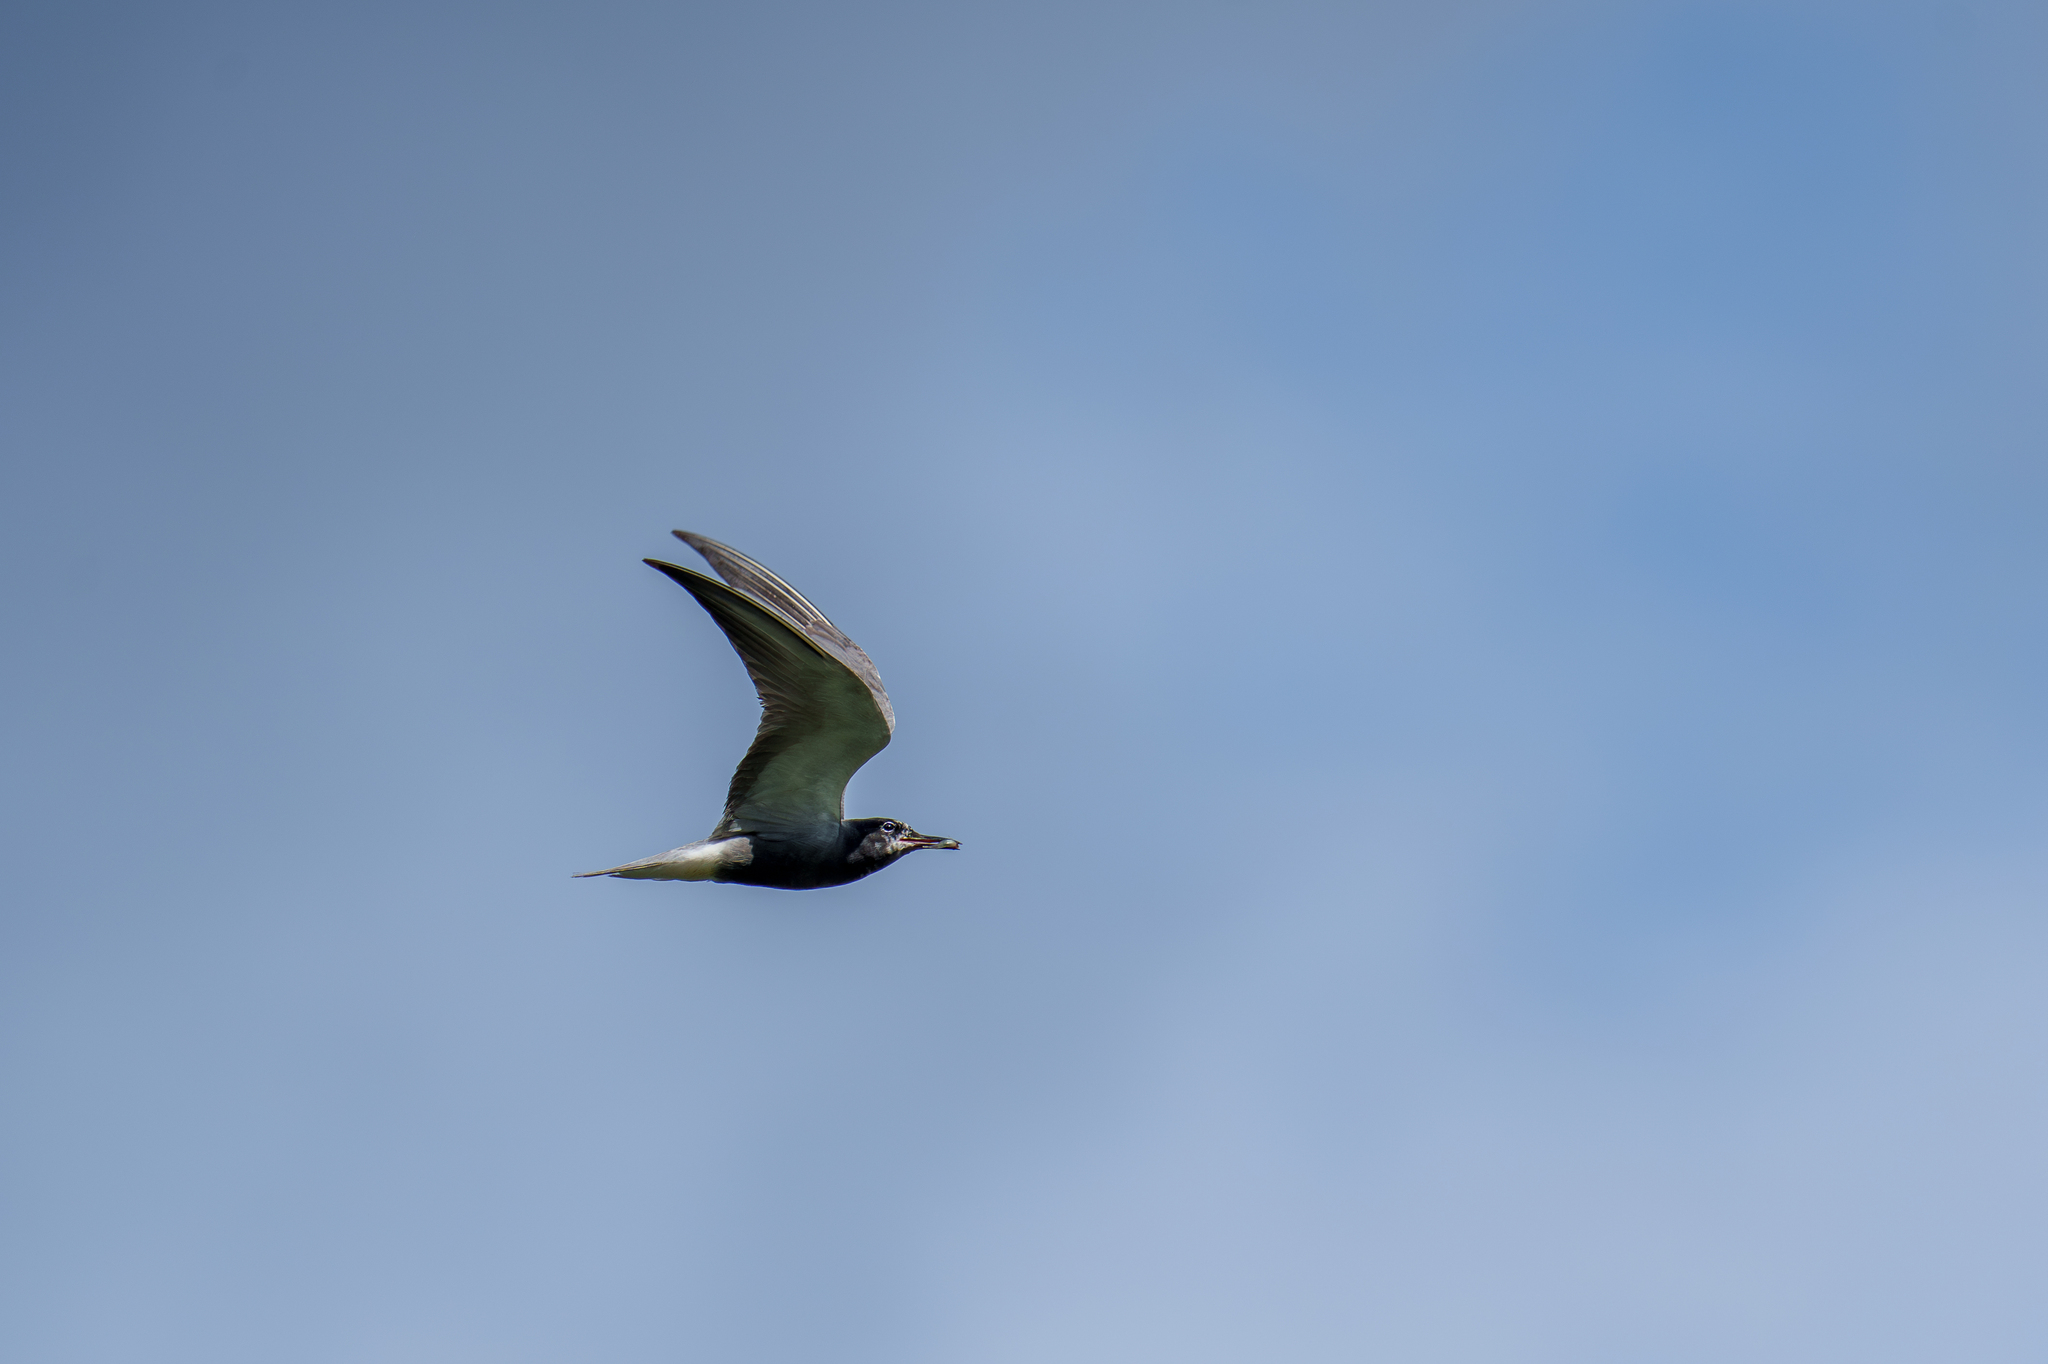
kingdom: Animalia
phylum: Chordata
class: Aves
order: Charadriiformes
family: Laridae
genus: Chlidonias
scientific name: Chlidonias niger
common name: Black tern
